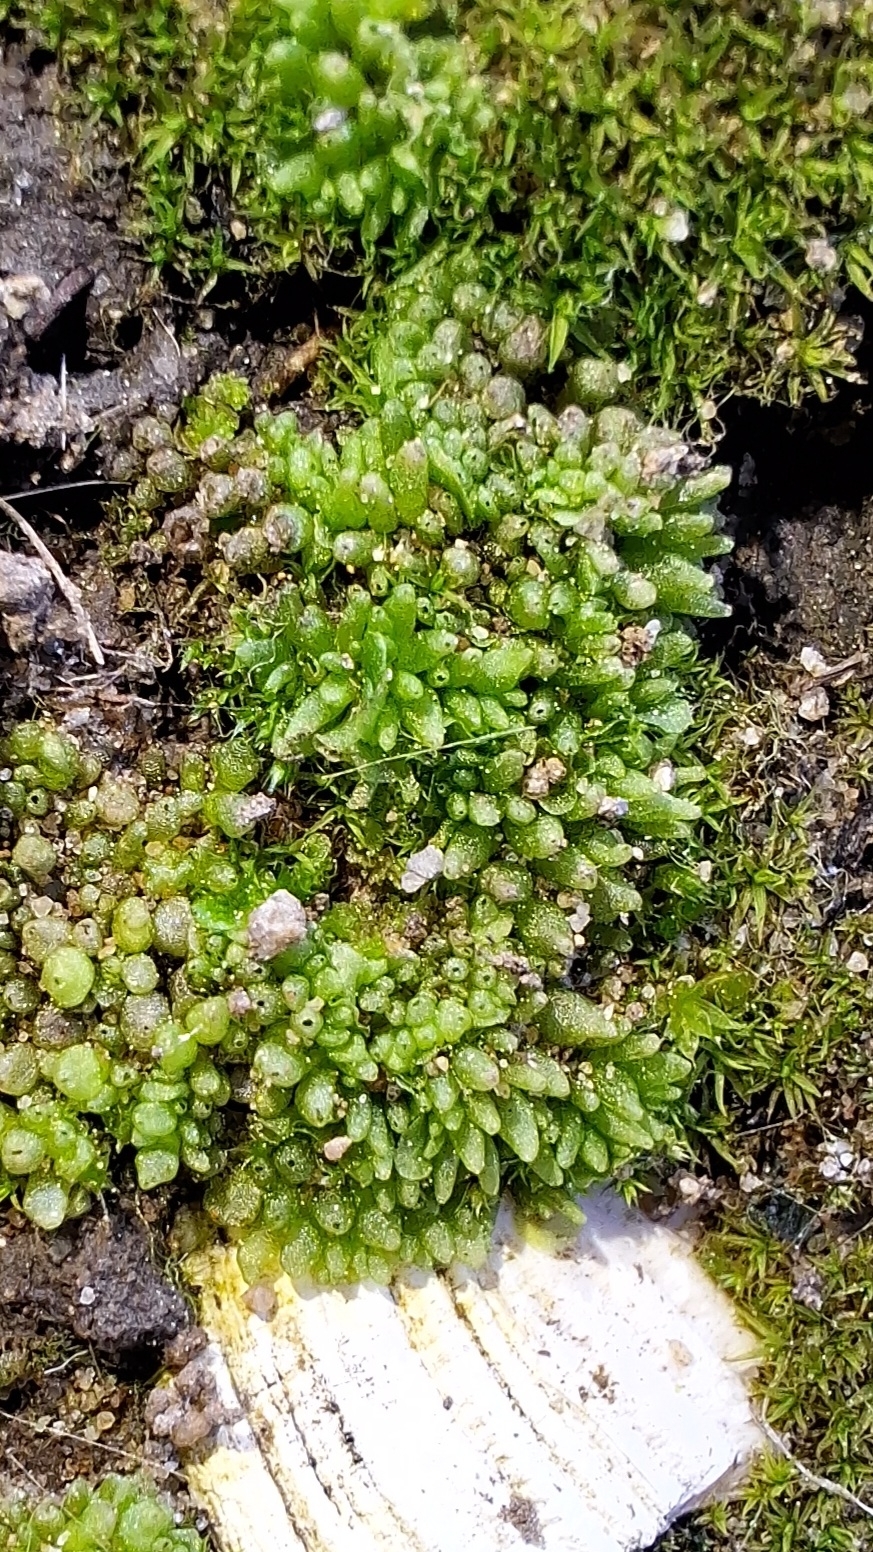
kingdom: Plantae
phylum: Marchantiophyta
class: Marchantiopsida
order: Sphaerocarpales
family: Sphaerocarpaceae
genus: Sphaerocarpos
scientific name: Sphaerocarpos texanus
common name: Texas balloonwort
